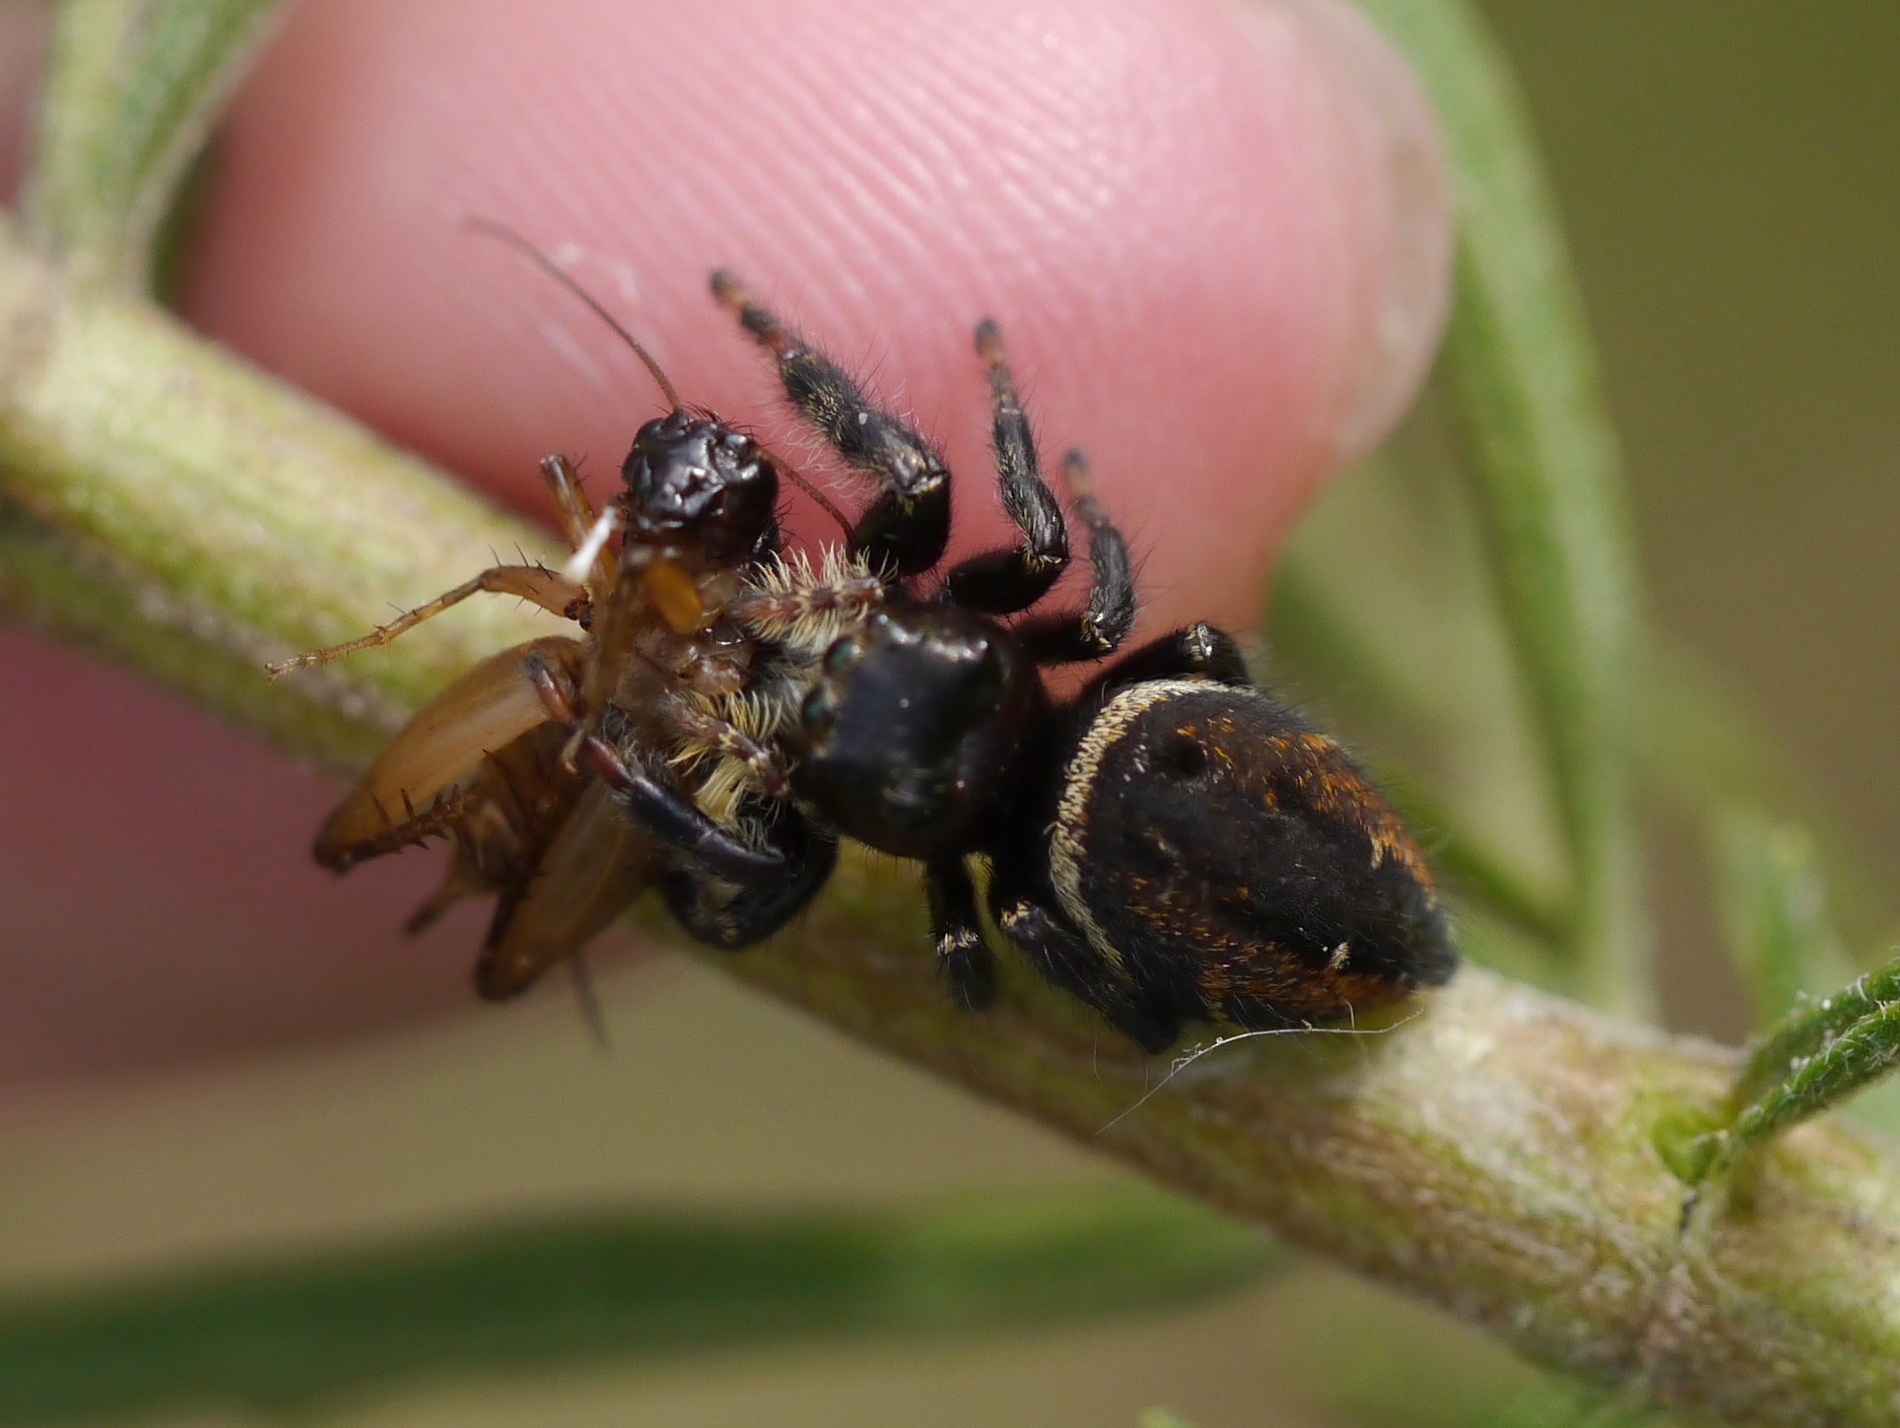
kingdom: Animalia
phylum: Arthropoda
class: Arachnida
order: Araneae
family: Salticidae
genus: Phidippus
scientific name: Phidippus clarus
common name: Brilliant jumping spider
